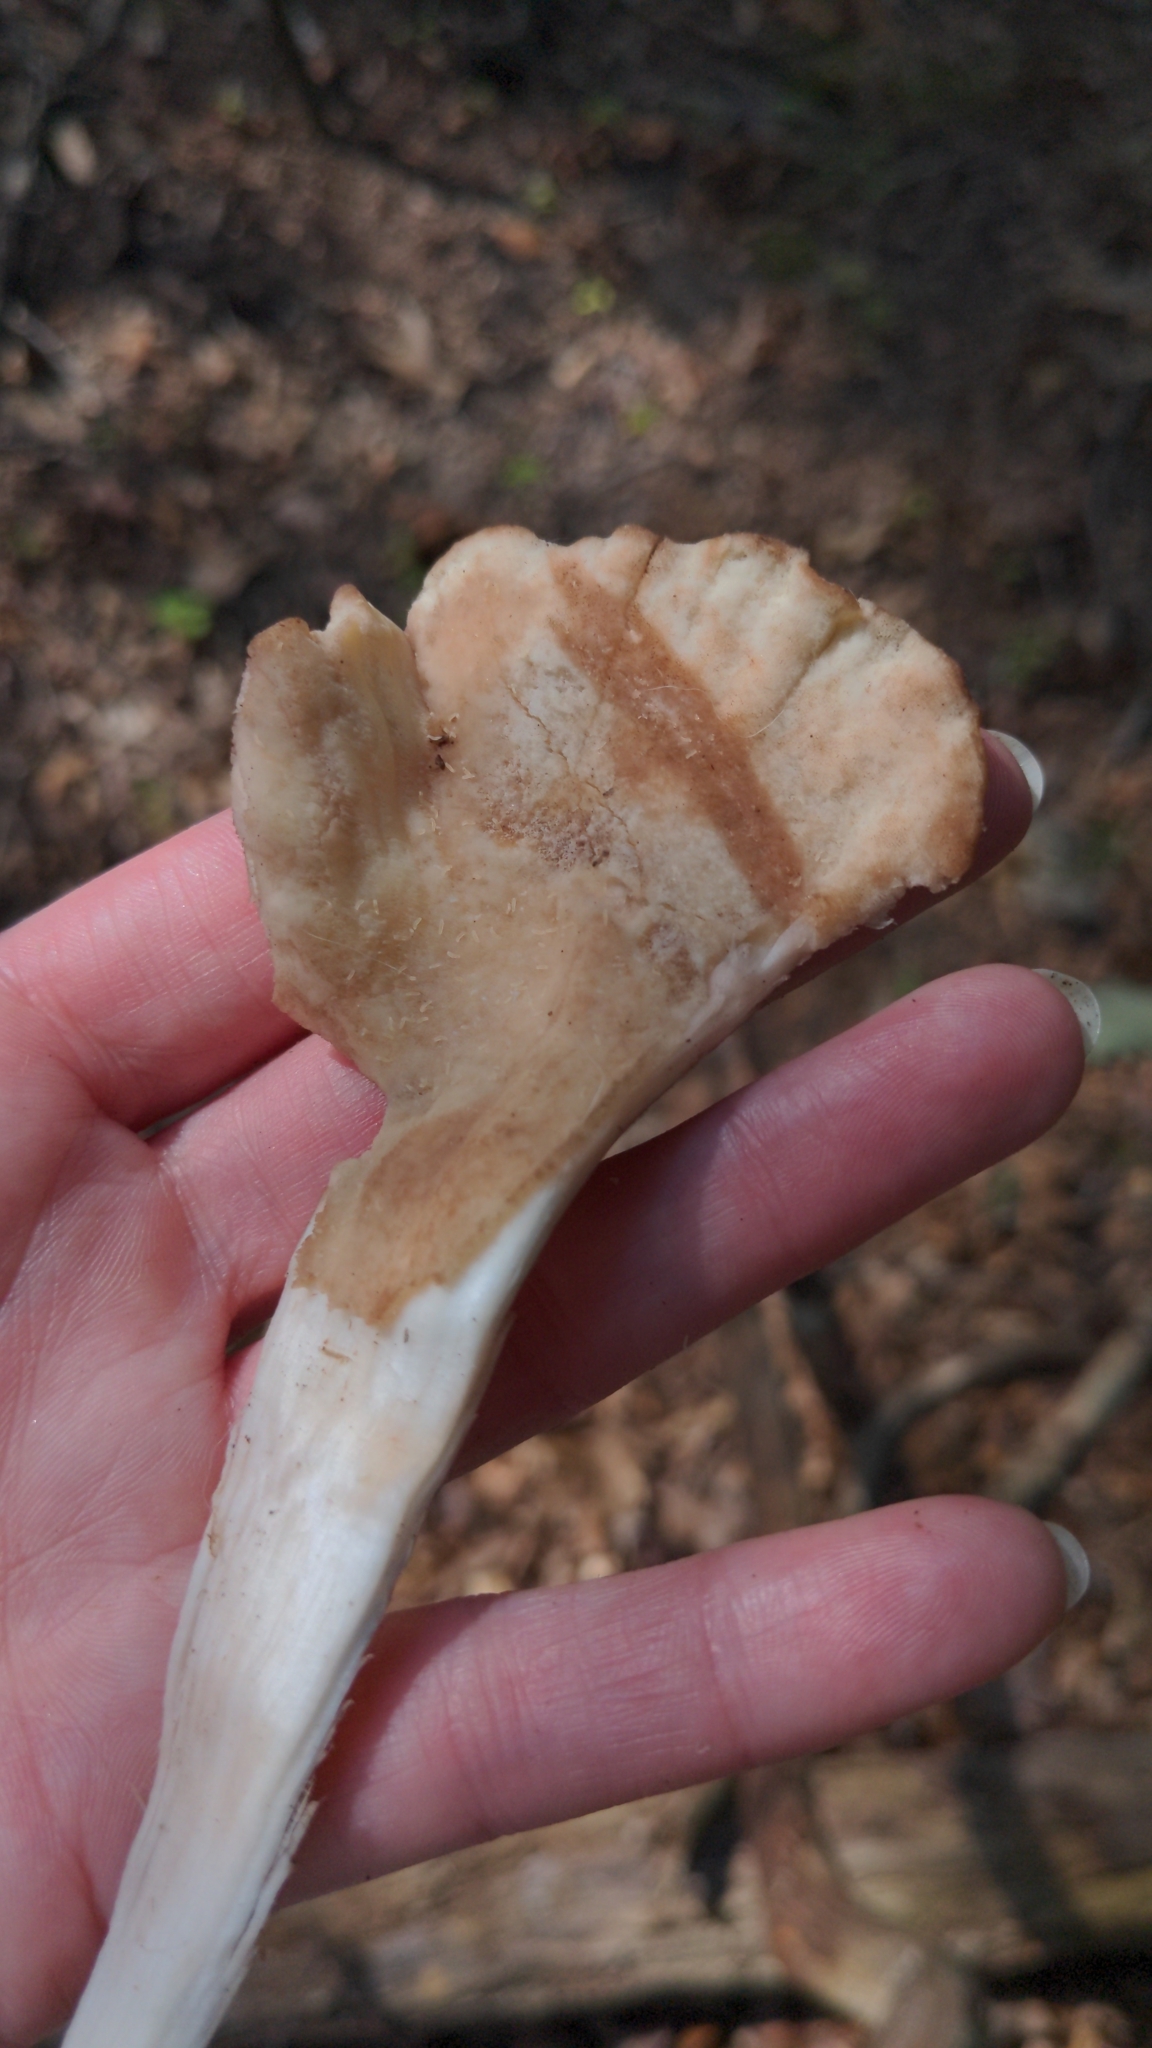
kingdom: Fungi
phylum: Basidiomycota
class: Agaricomycetes
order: Polyporales
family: Meripilaceae
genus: Meripilus
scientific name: Meripilus sumstinei
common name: Black-staining polypore
